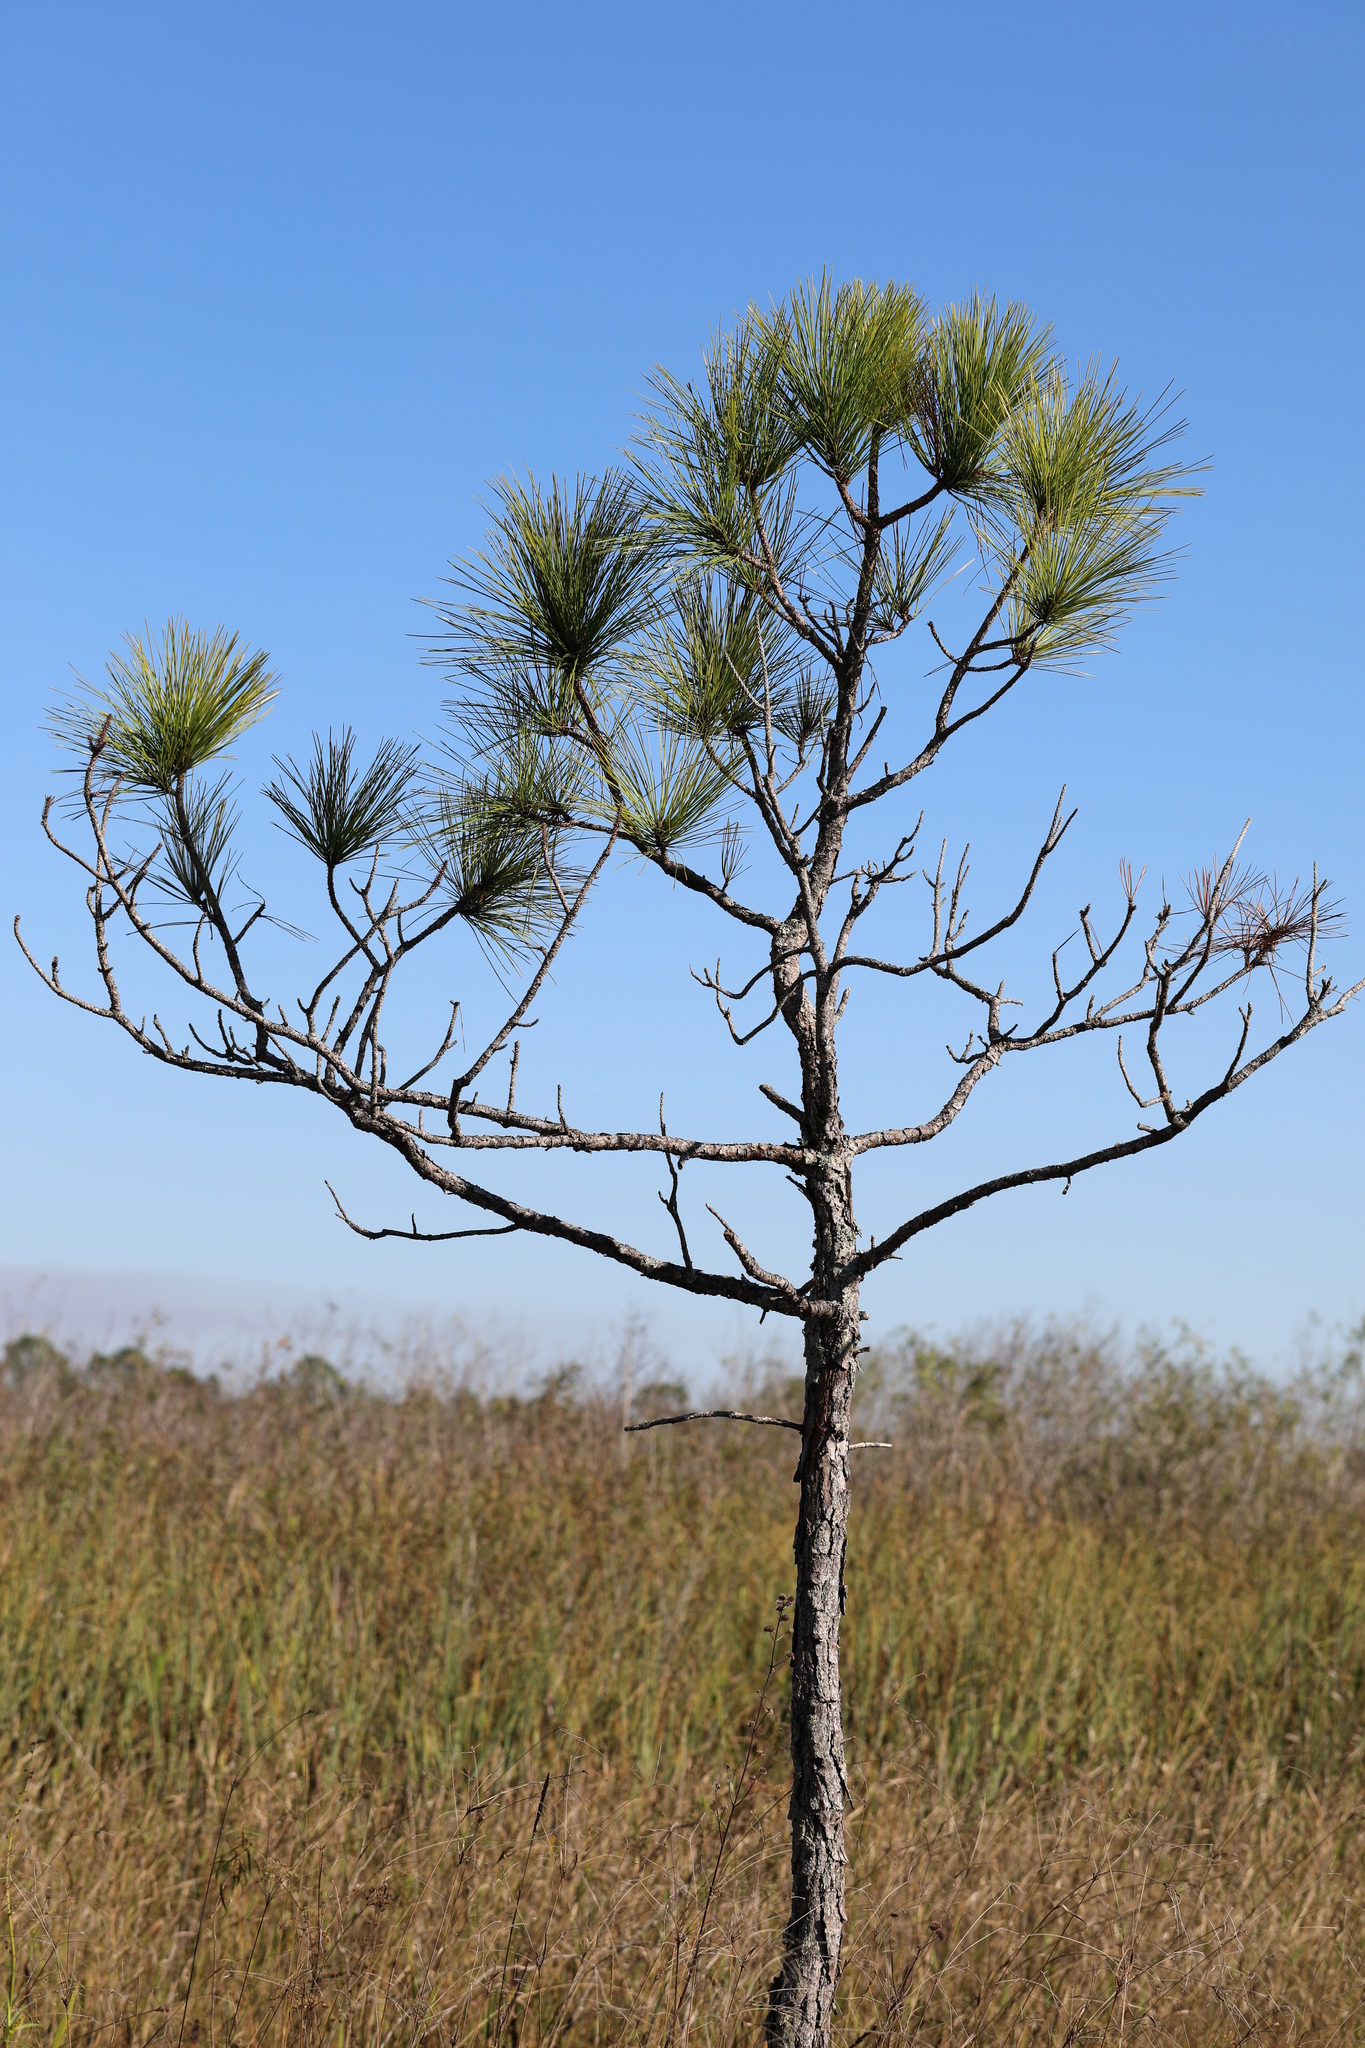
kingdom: Plantae
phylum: Tracheophyta
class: Pinopsida
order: Pinales
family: Pinaceae
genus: Pinus
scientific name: Pinus elliottii
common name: Slash pine
